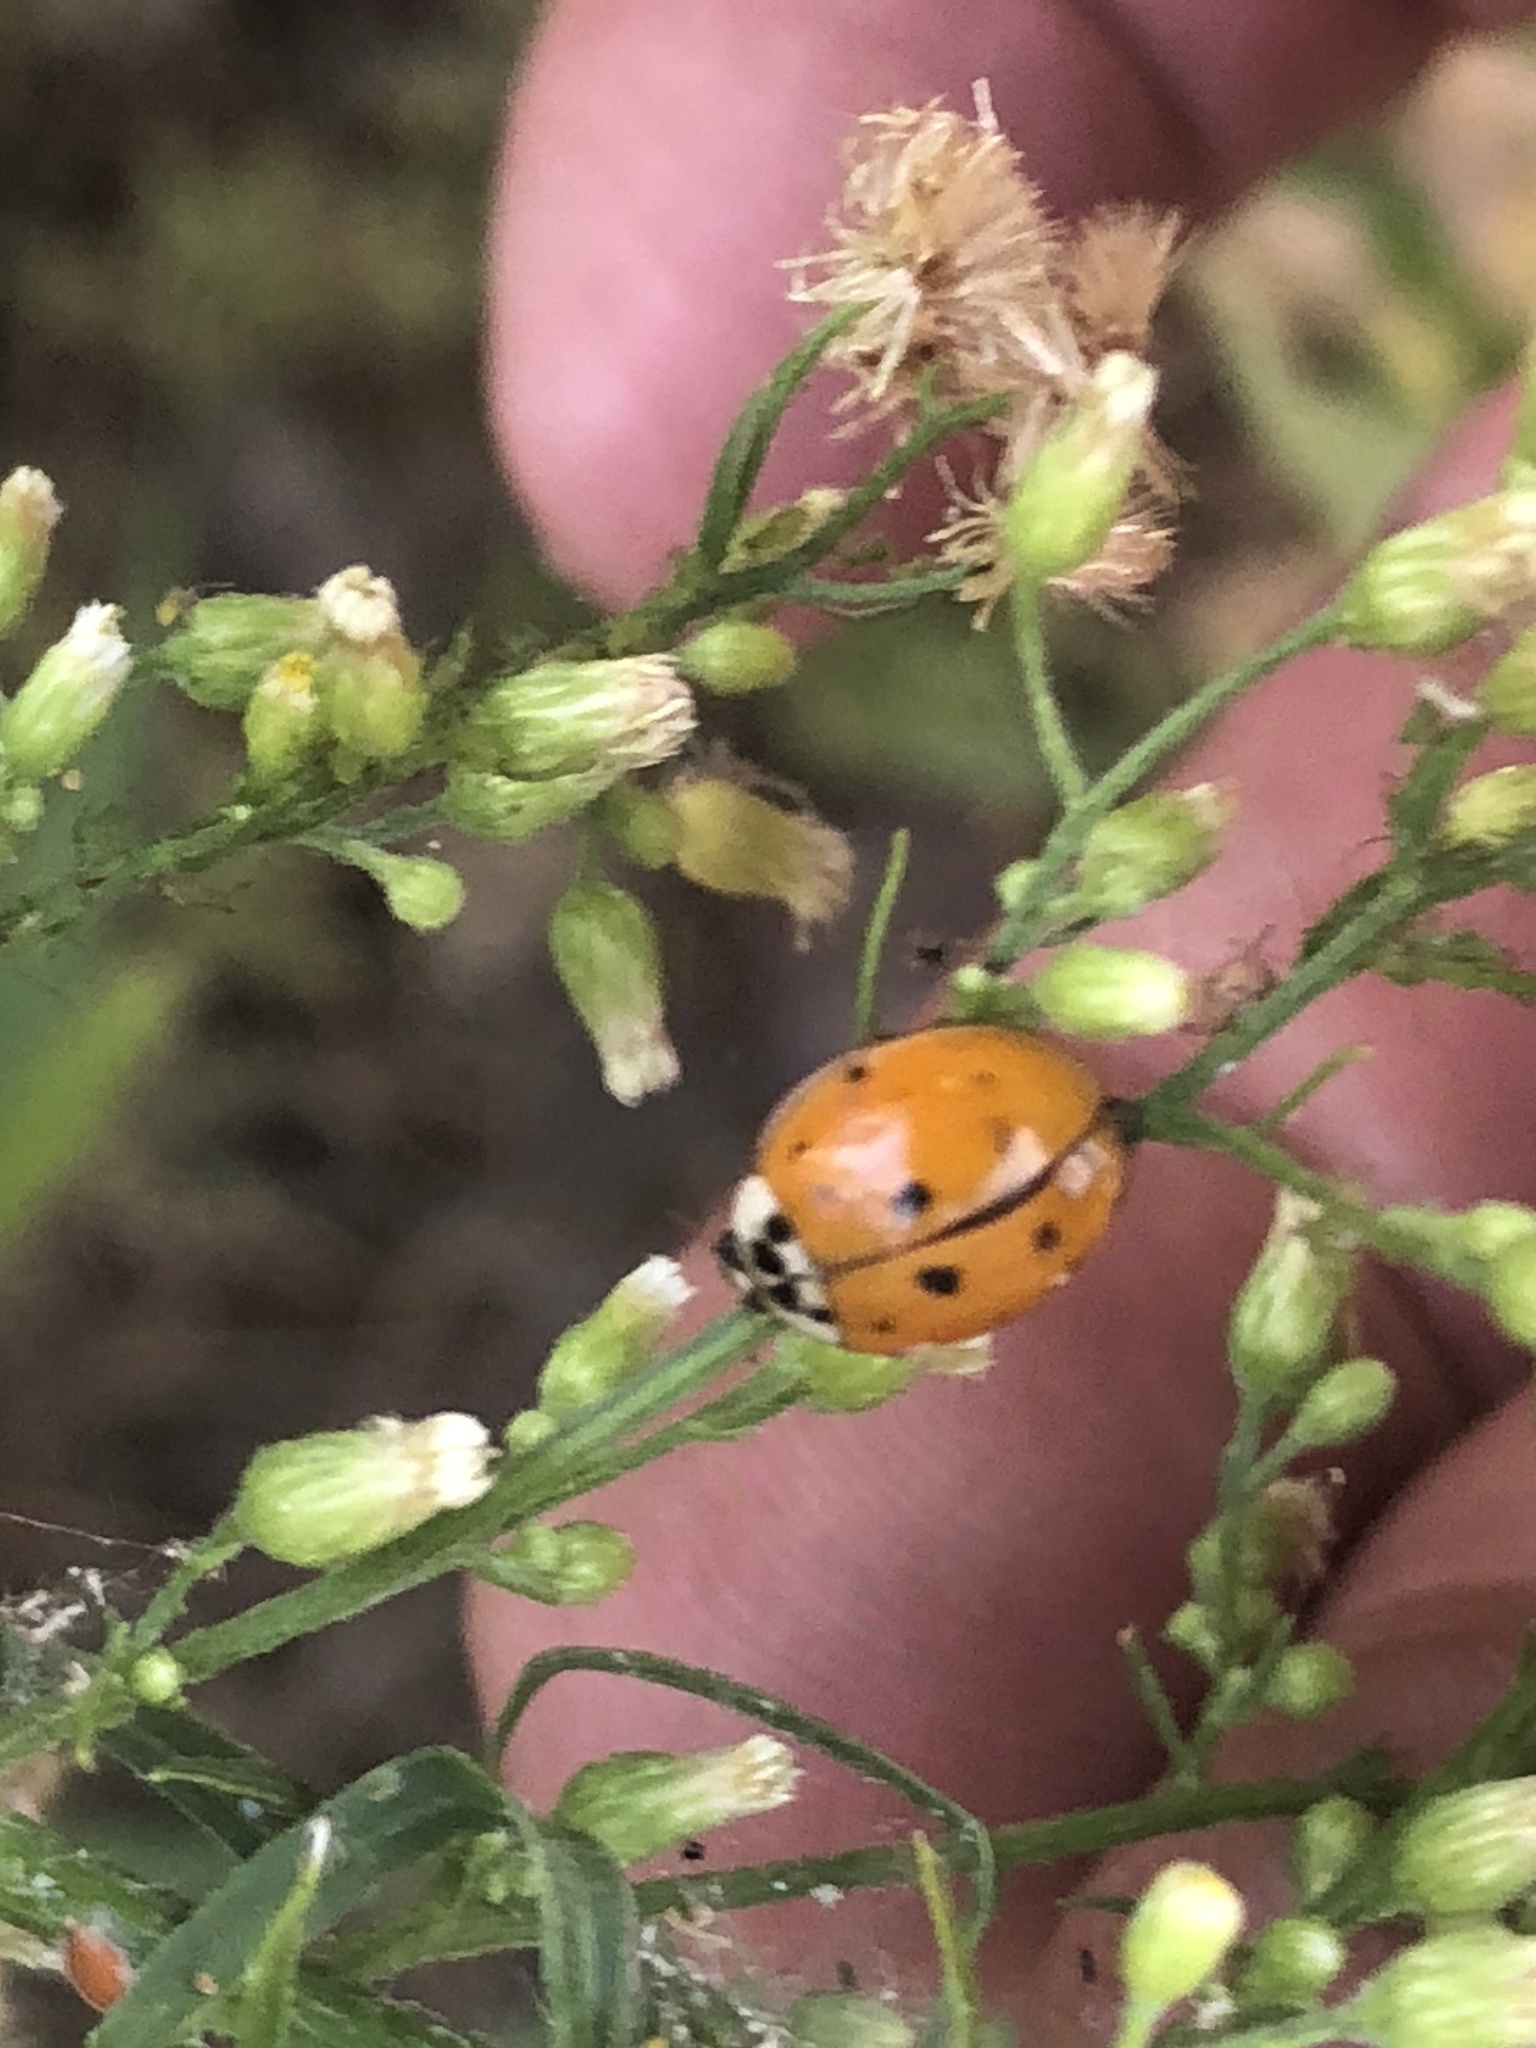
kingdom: Animalia
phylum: Arthropoda
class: Insecta
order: Coleoptera
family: Coccinellidae
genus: Harmonia
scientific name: Harmonia axyridis
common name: Harlequin ladybird
